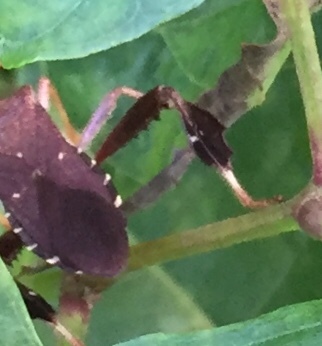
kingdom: Animalia
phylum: Arthropoda
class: Insecta
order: Hemiptera
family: Coreidae
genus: Leptoglossus
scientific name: Leptoglossus oppositus
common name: Northern leaf-footed bug
